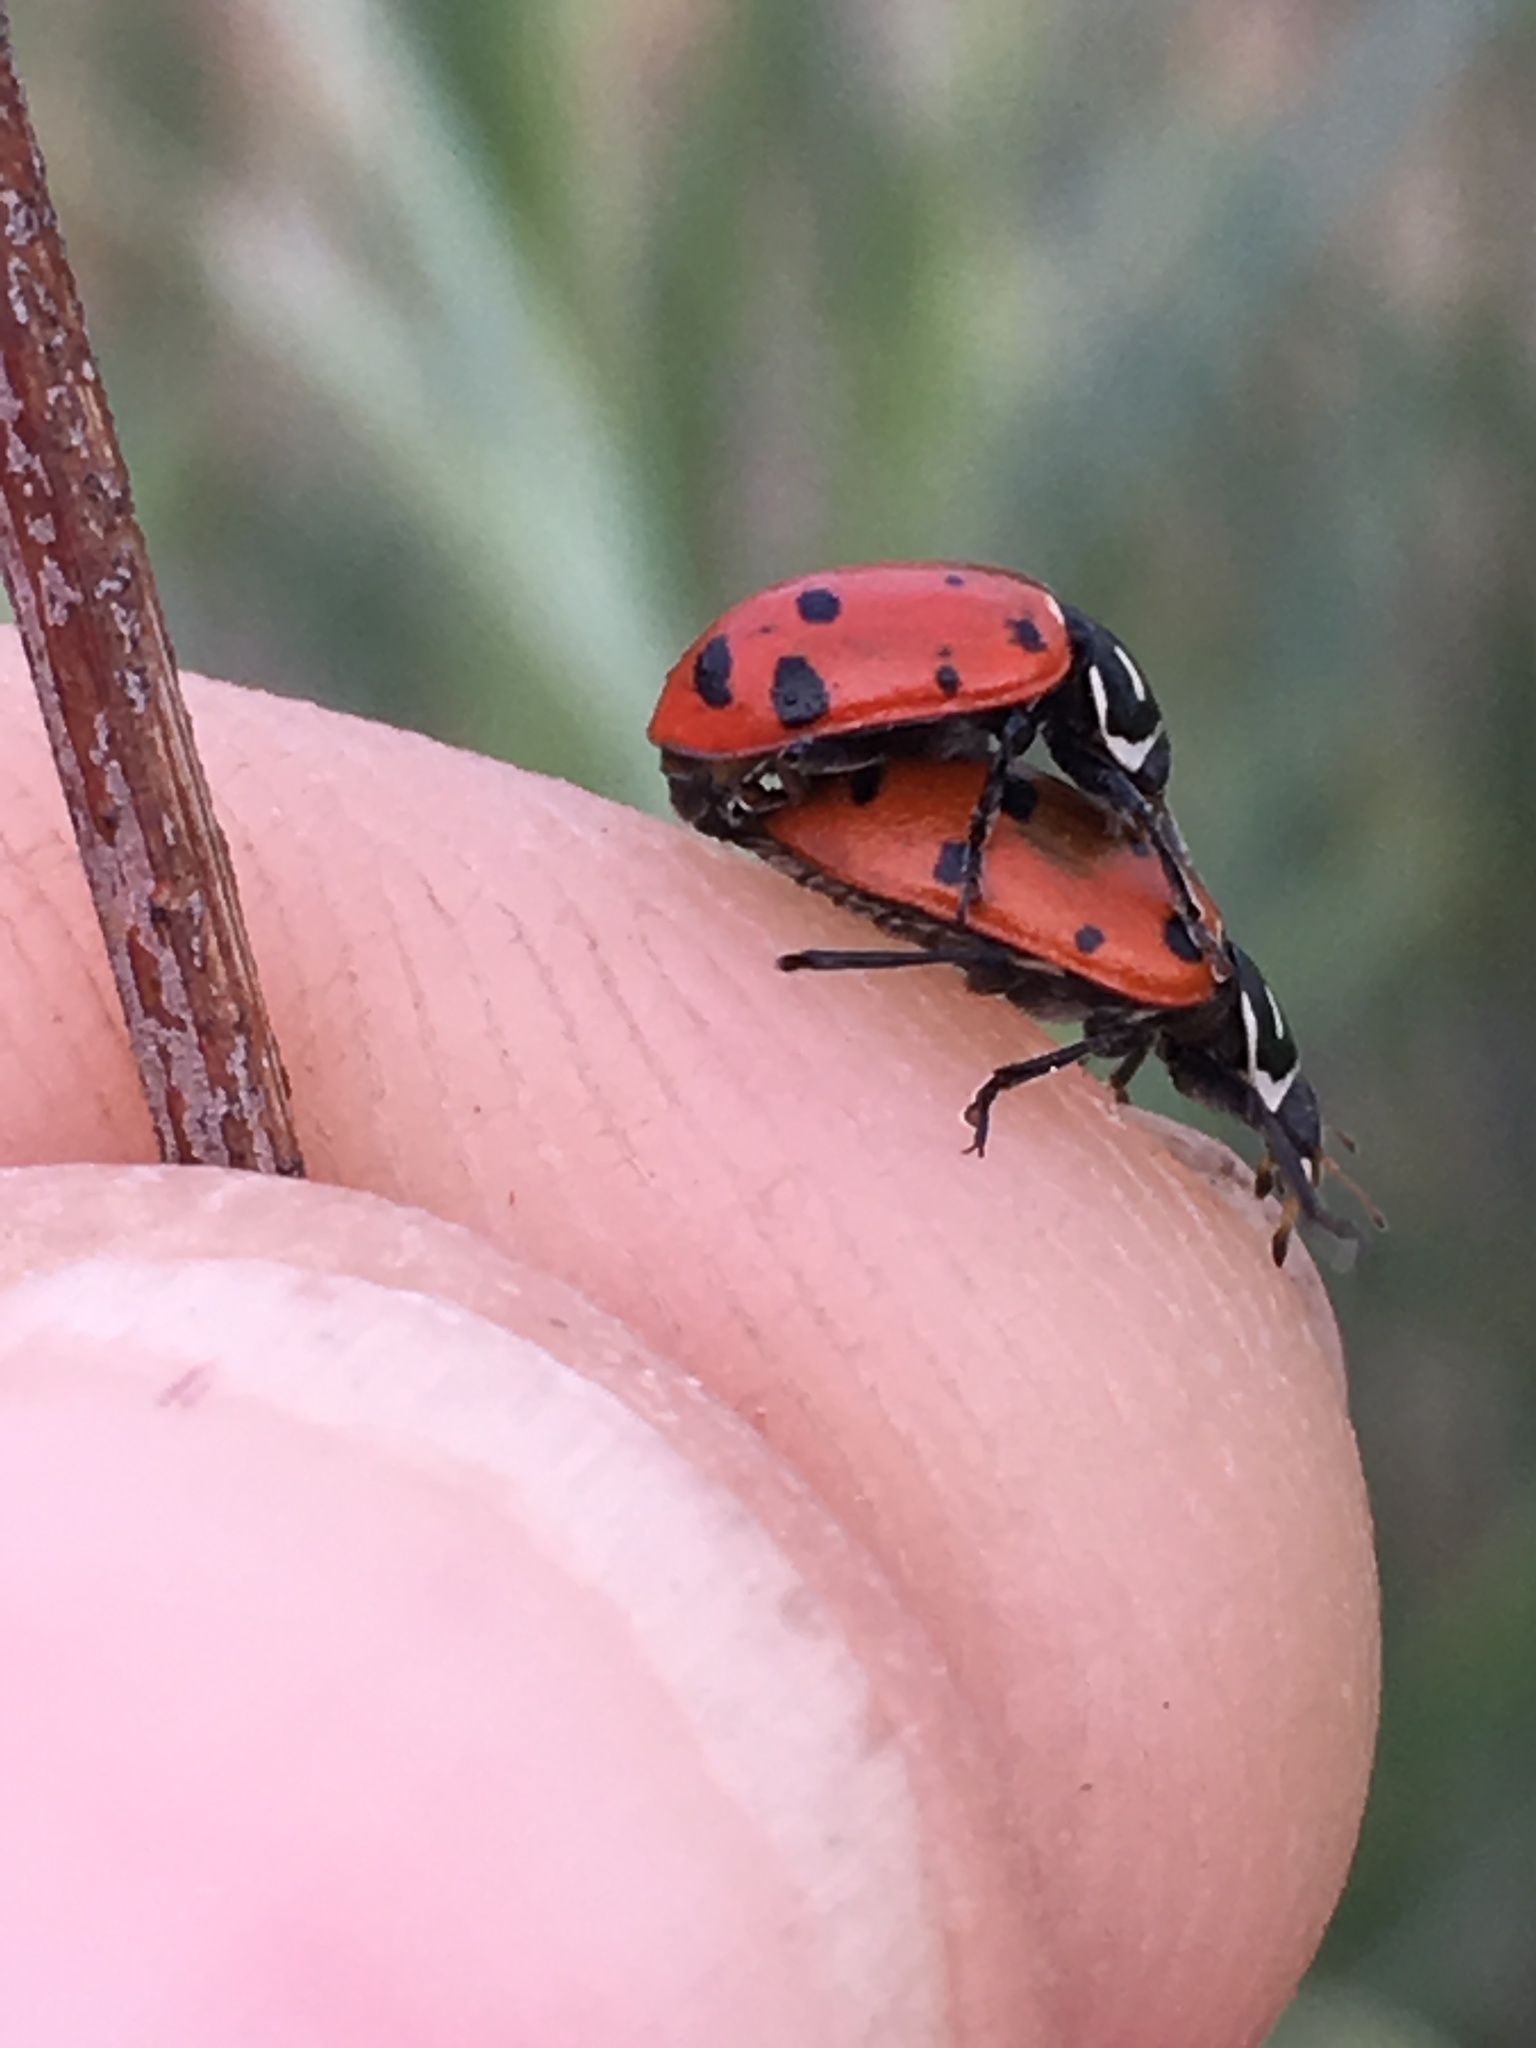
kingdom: Animalia
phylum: Arthropoda
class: Insecta
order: Coleoptera
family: Coccinellidae
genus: Hippodamia
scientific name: Hippodamia convergens
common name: Convergent lady beetle
